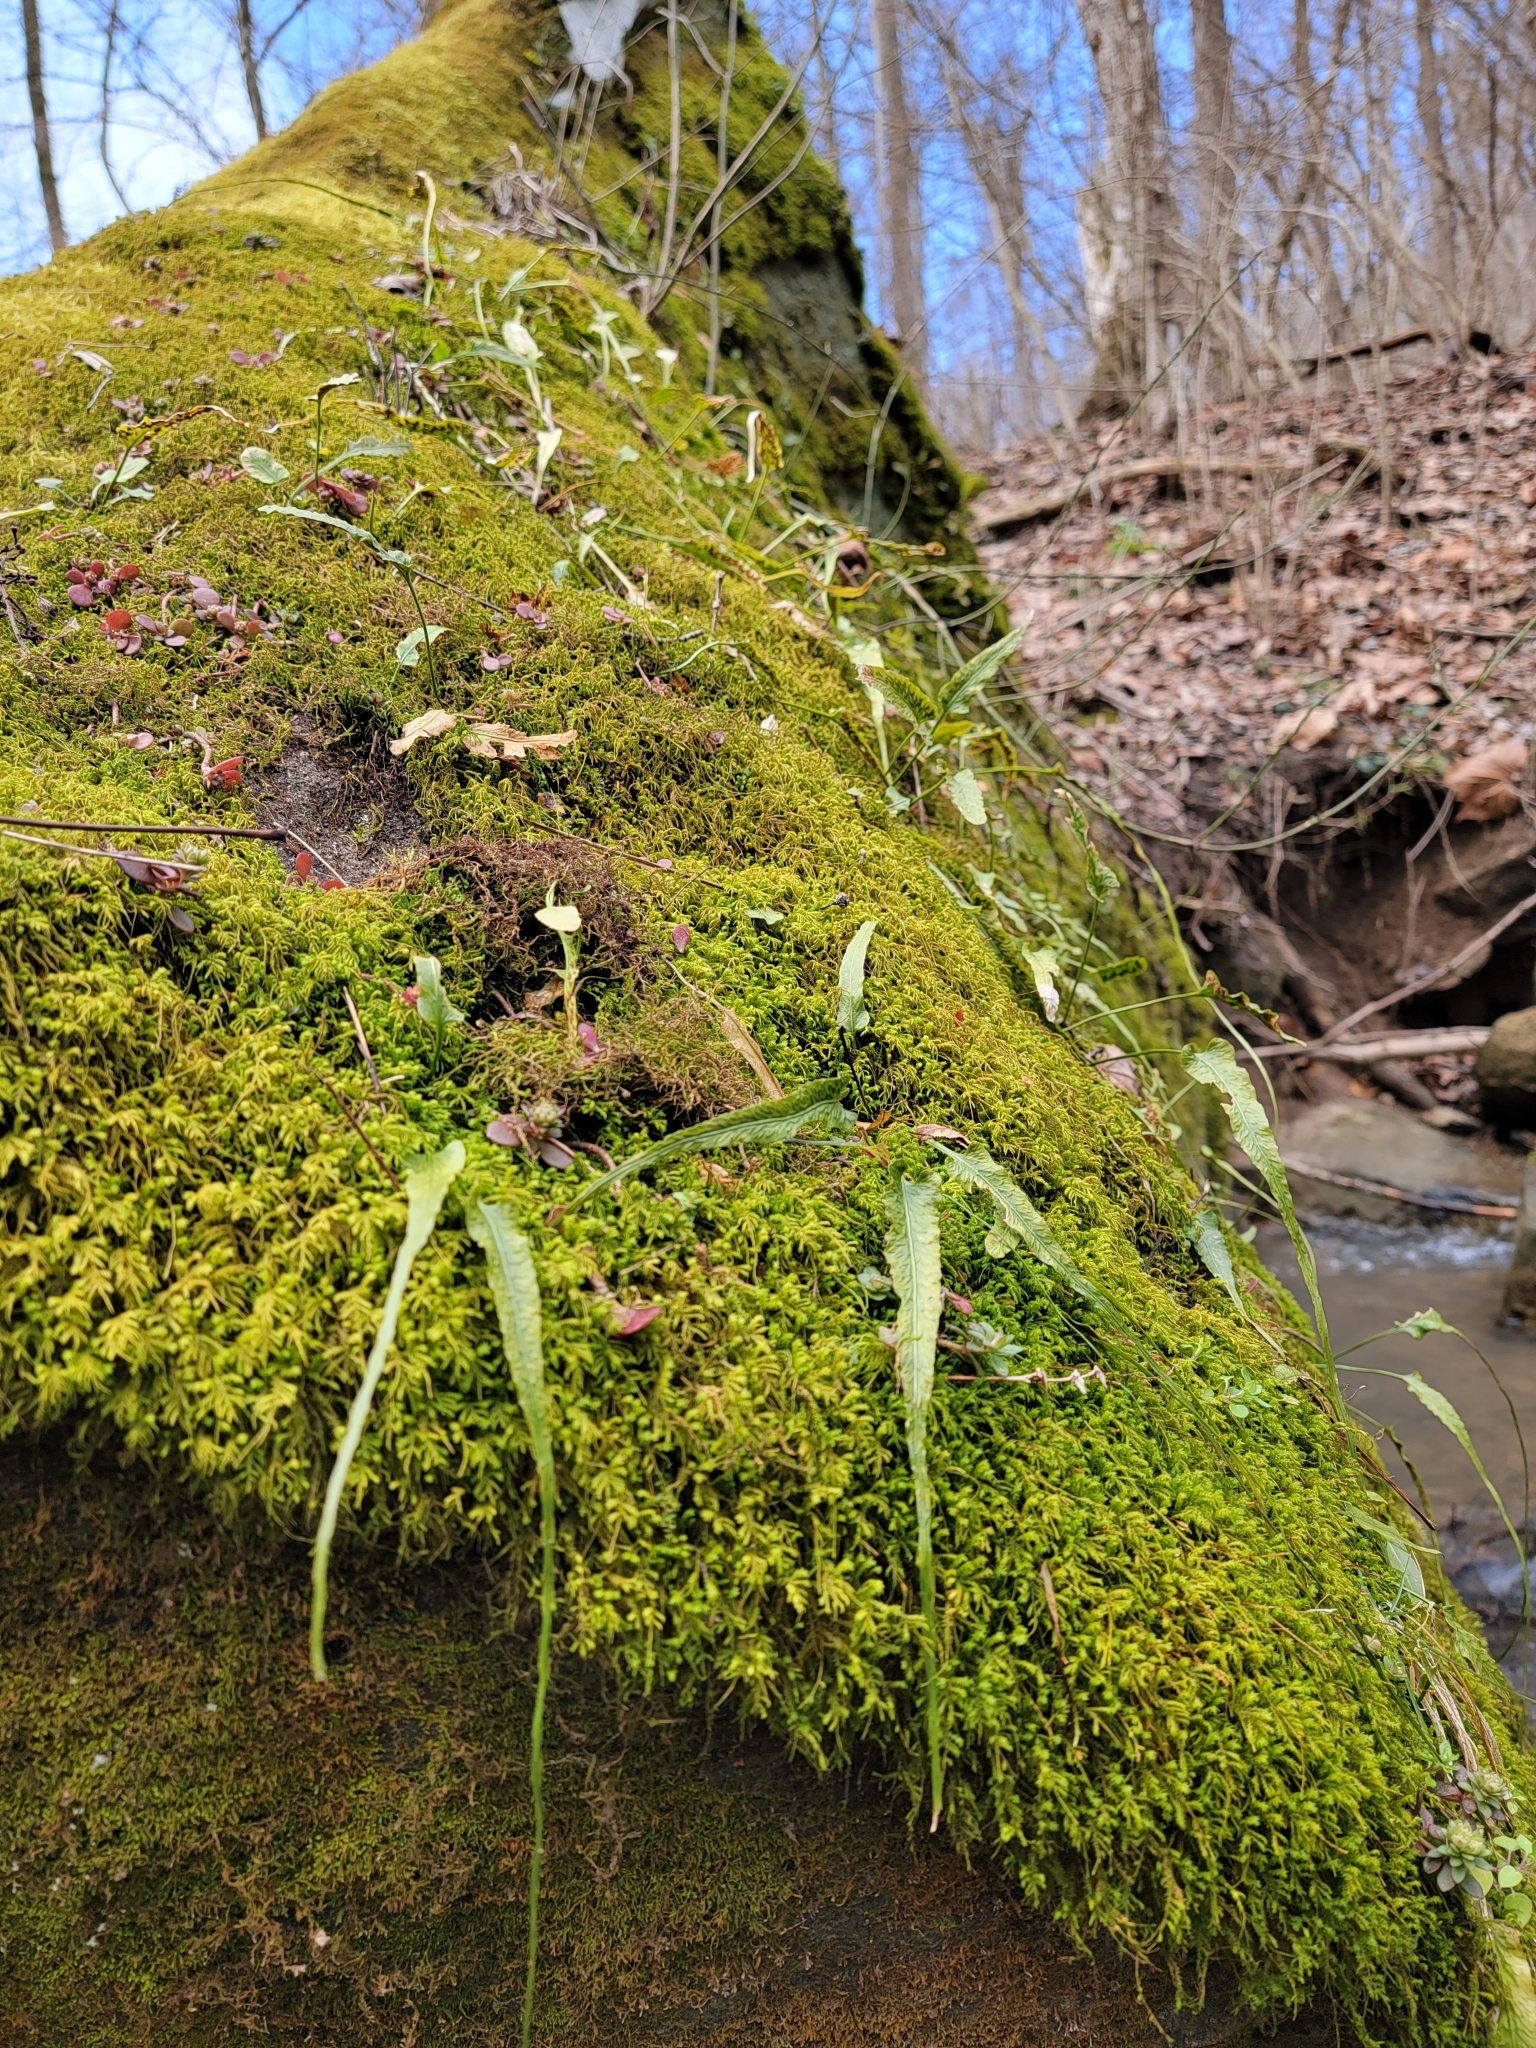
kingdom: Plantae
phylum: Tracheophyta
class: Polypodiopsida
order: Polypodiales
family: Aspleniaceae
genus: Asplenium
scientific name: Asplenium rhizophyllum
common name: Walking fern
